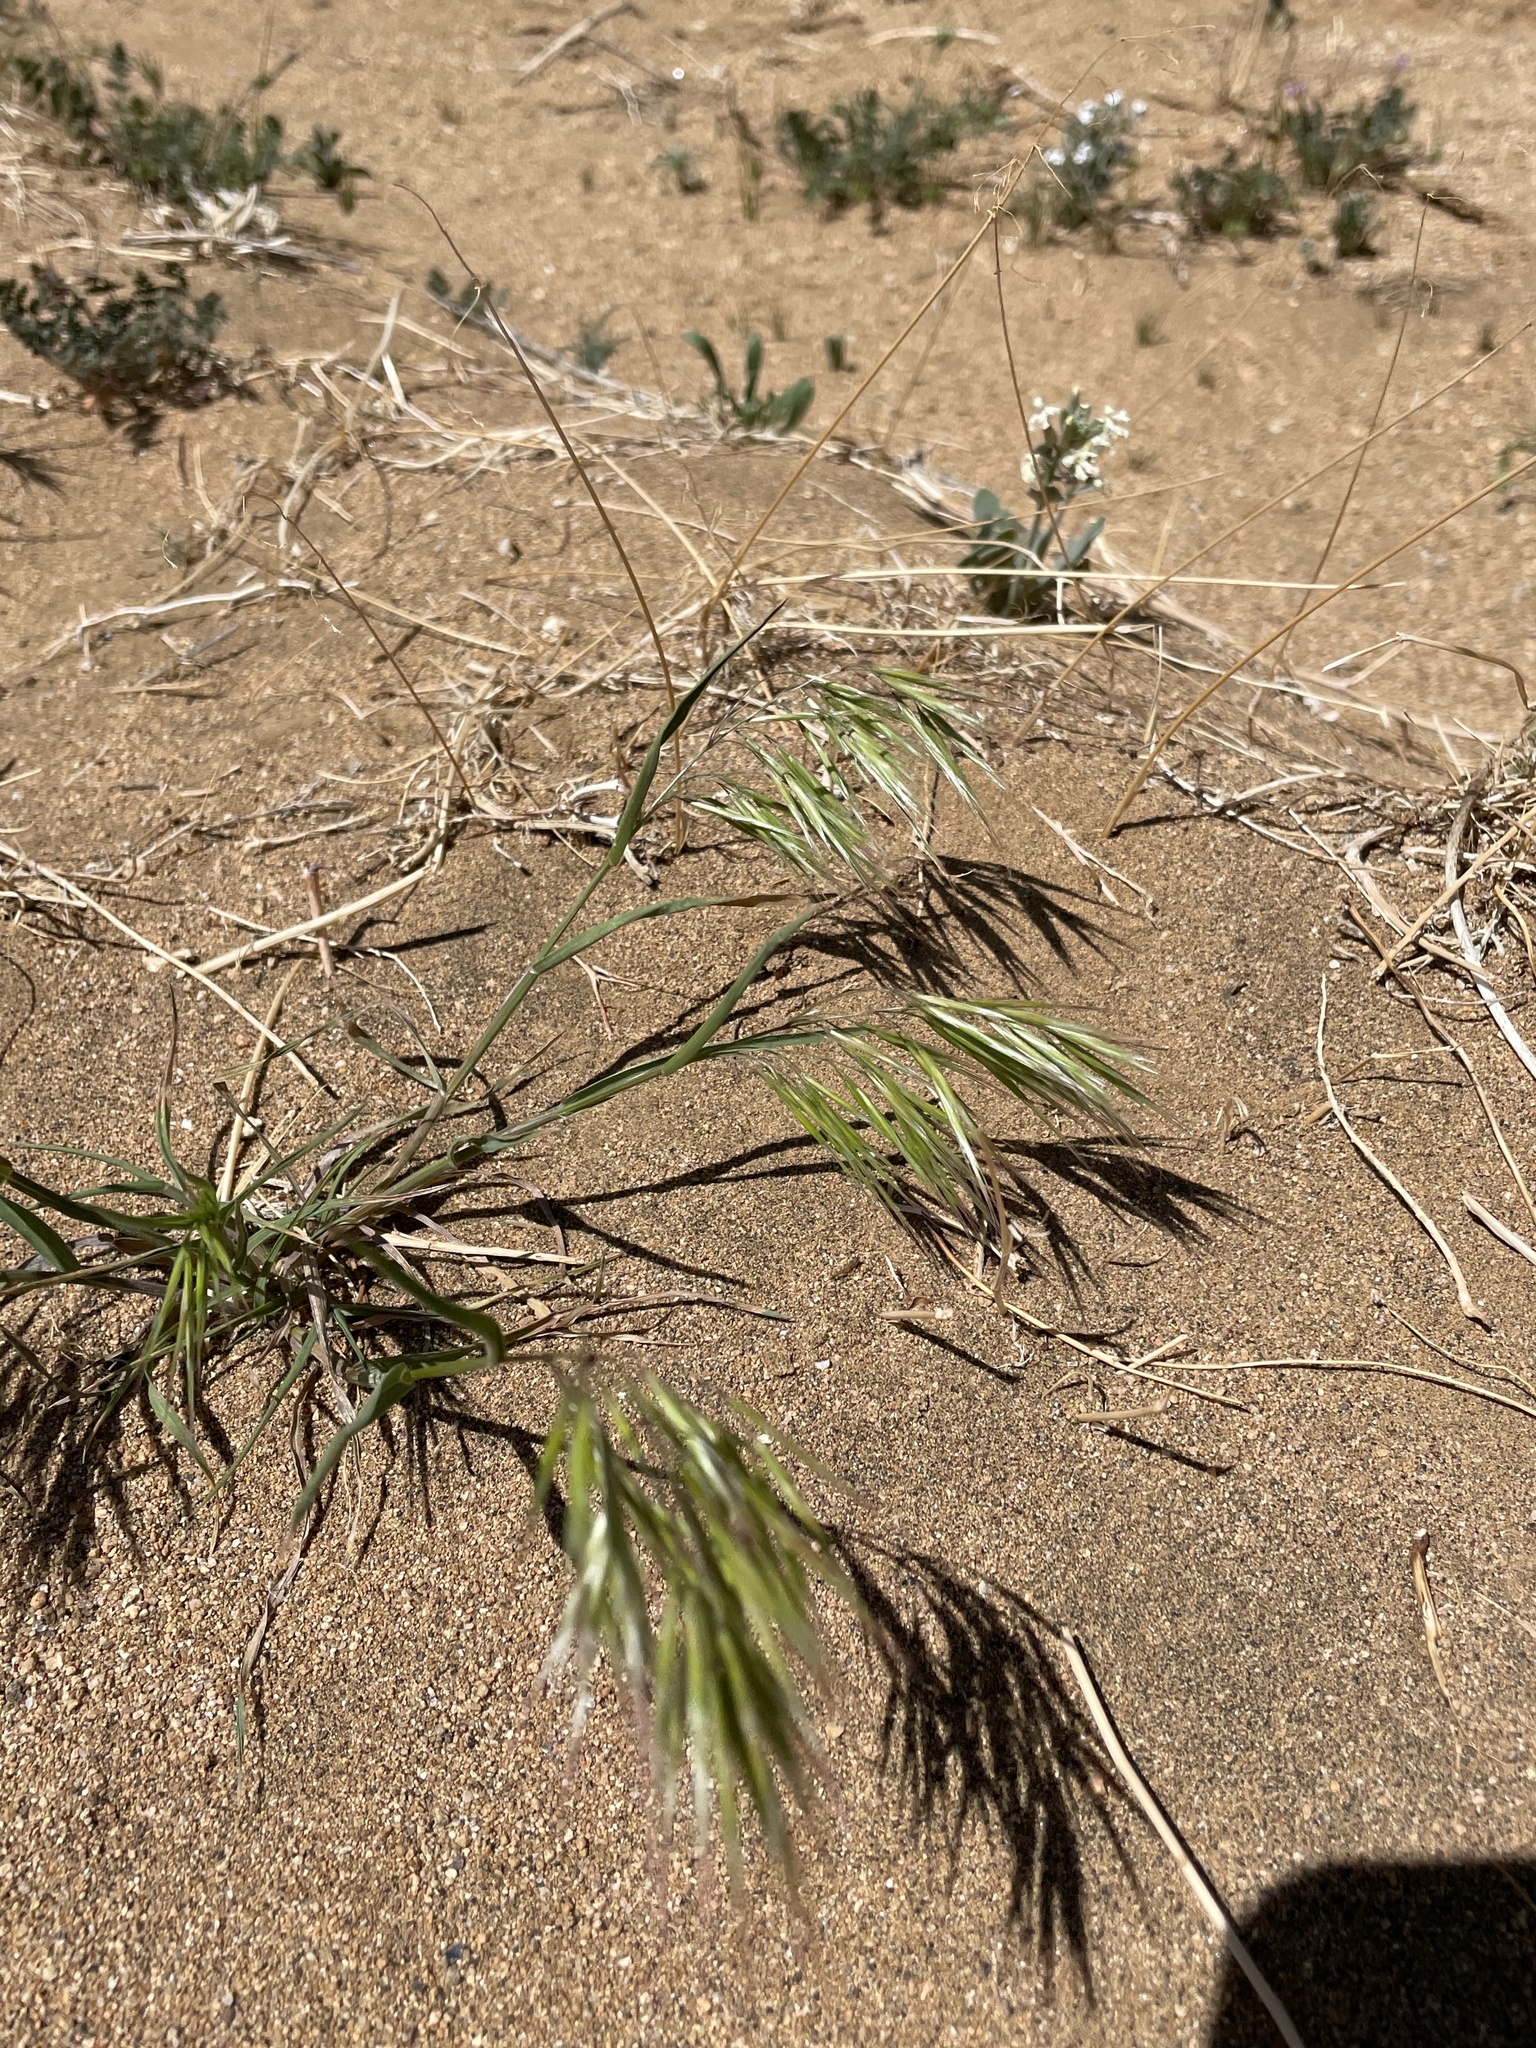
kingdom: Plantae
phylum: Tracheophyta
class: Liliopsida
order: Poales
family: Poaceae
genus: Bromus
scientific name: Bromus tectorum
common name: Cheatgrass
